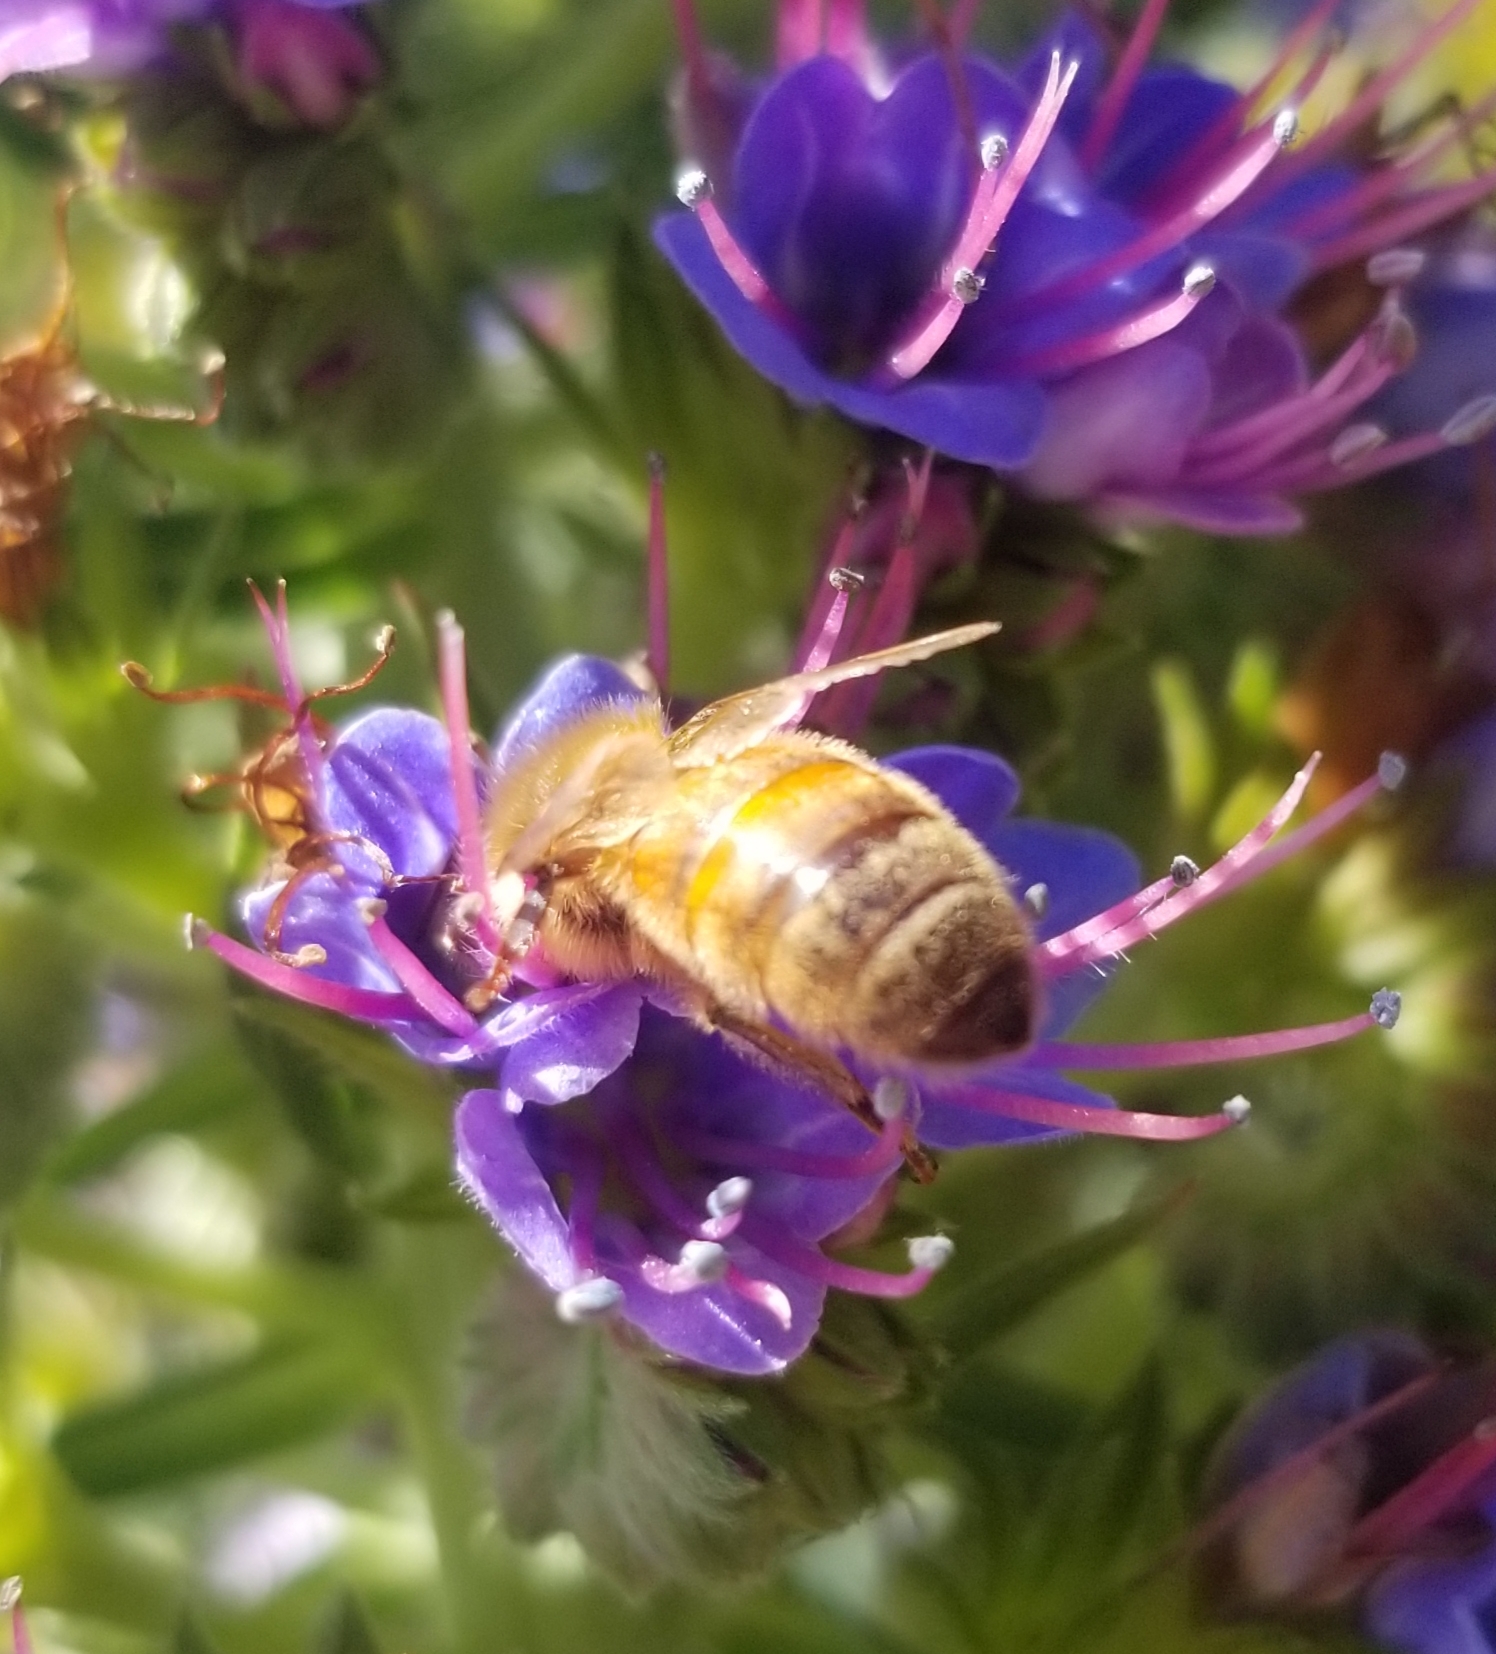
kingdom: Animalia
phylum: Arthropoda
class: Insecta
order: Hymenoptera
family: Apidae
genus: Apis
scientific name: Apis mellifera
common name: Honey bee
